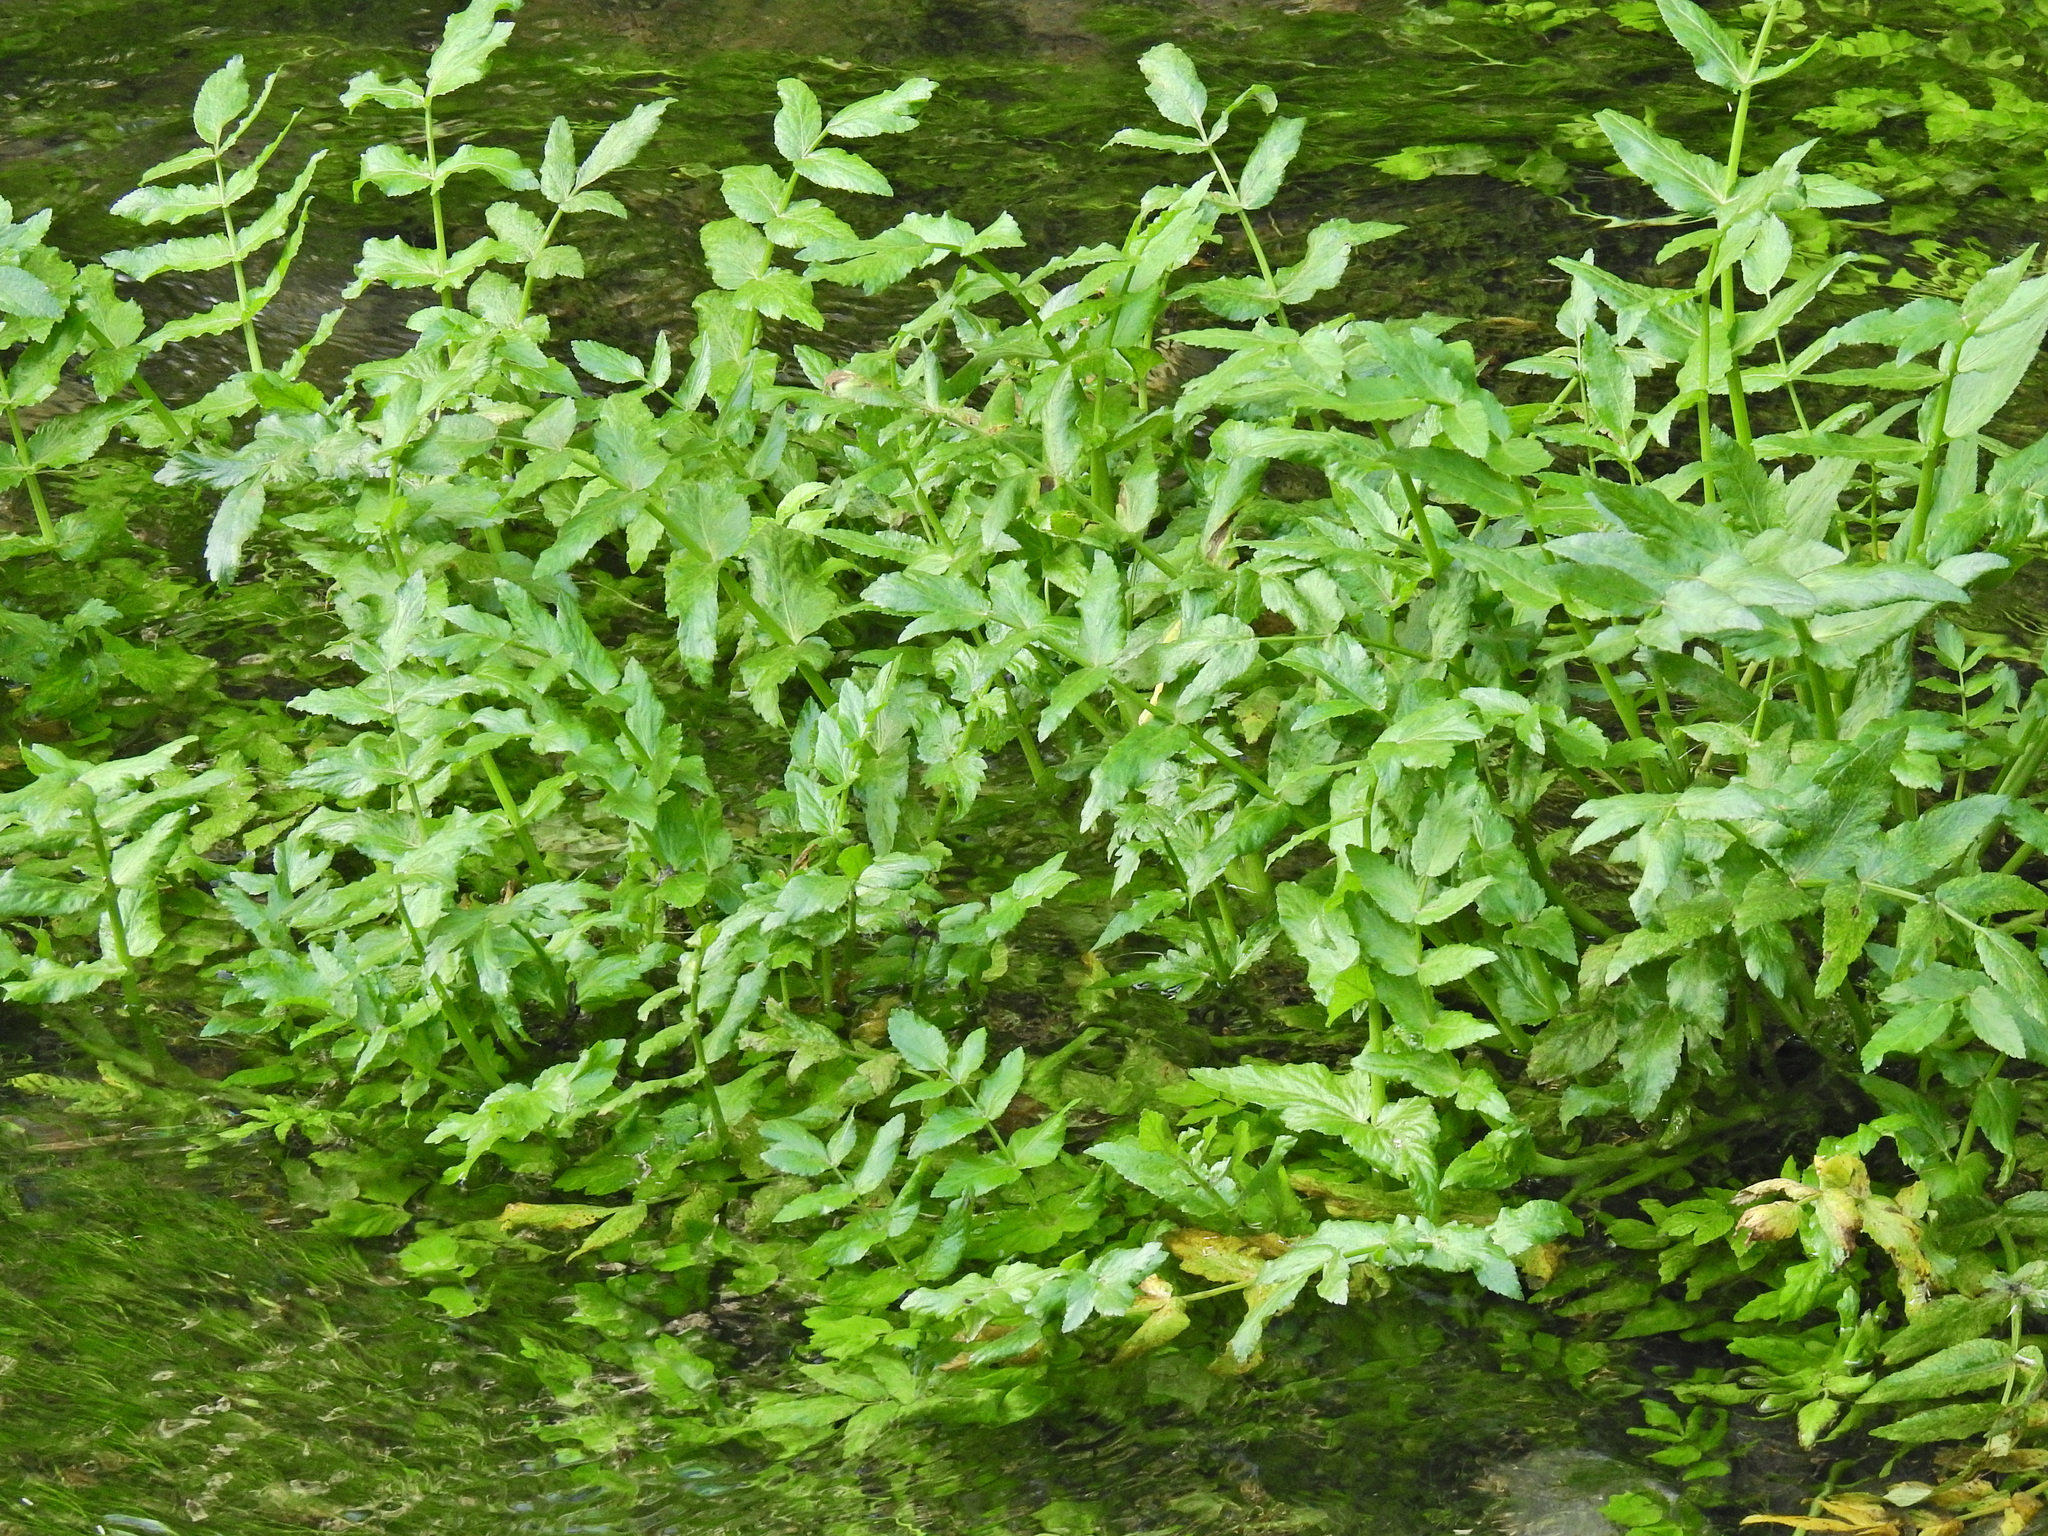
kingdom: Plantae
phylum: Tracheophyta
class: Magnoliopsida
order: Apiales
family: Apiaceae
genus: Helosciadium
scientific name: Helosciadium nodiflorum
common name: Fool's-watercress
